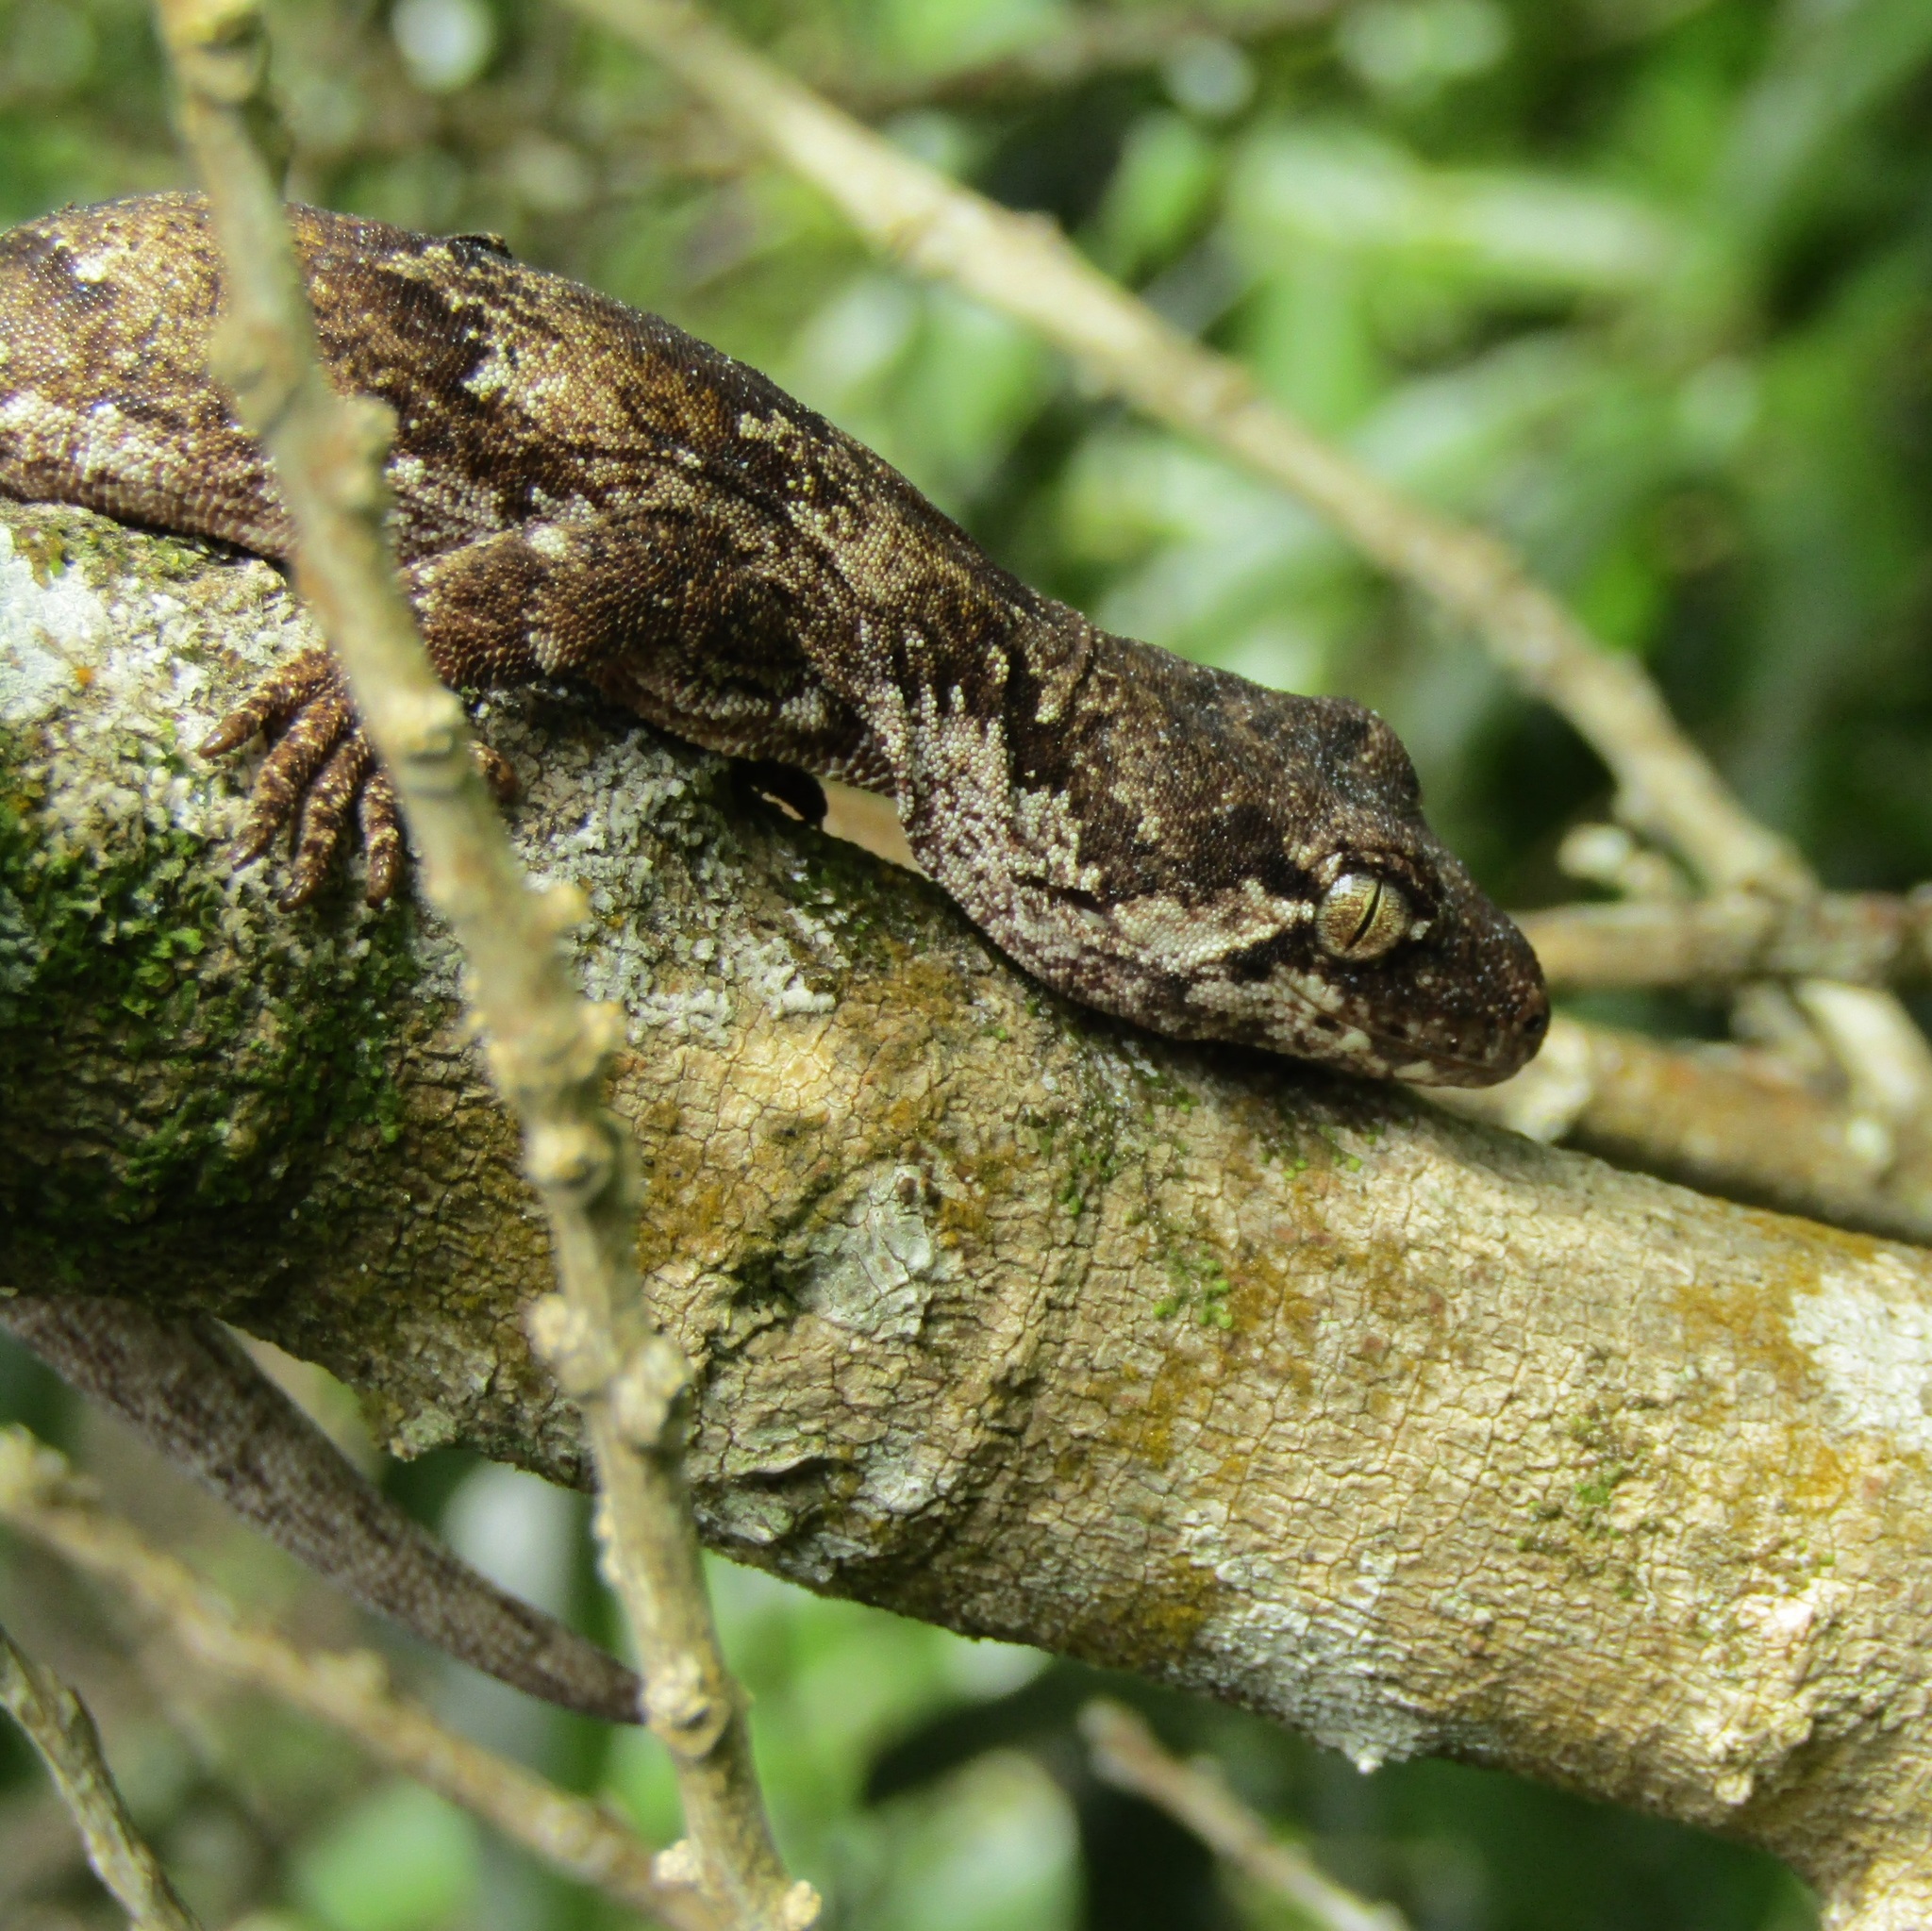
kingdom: Animalia
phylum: Chordata
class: Squamata
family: Diplodactylidae
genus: Mokopirirakau
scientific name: Mokopirirakau
